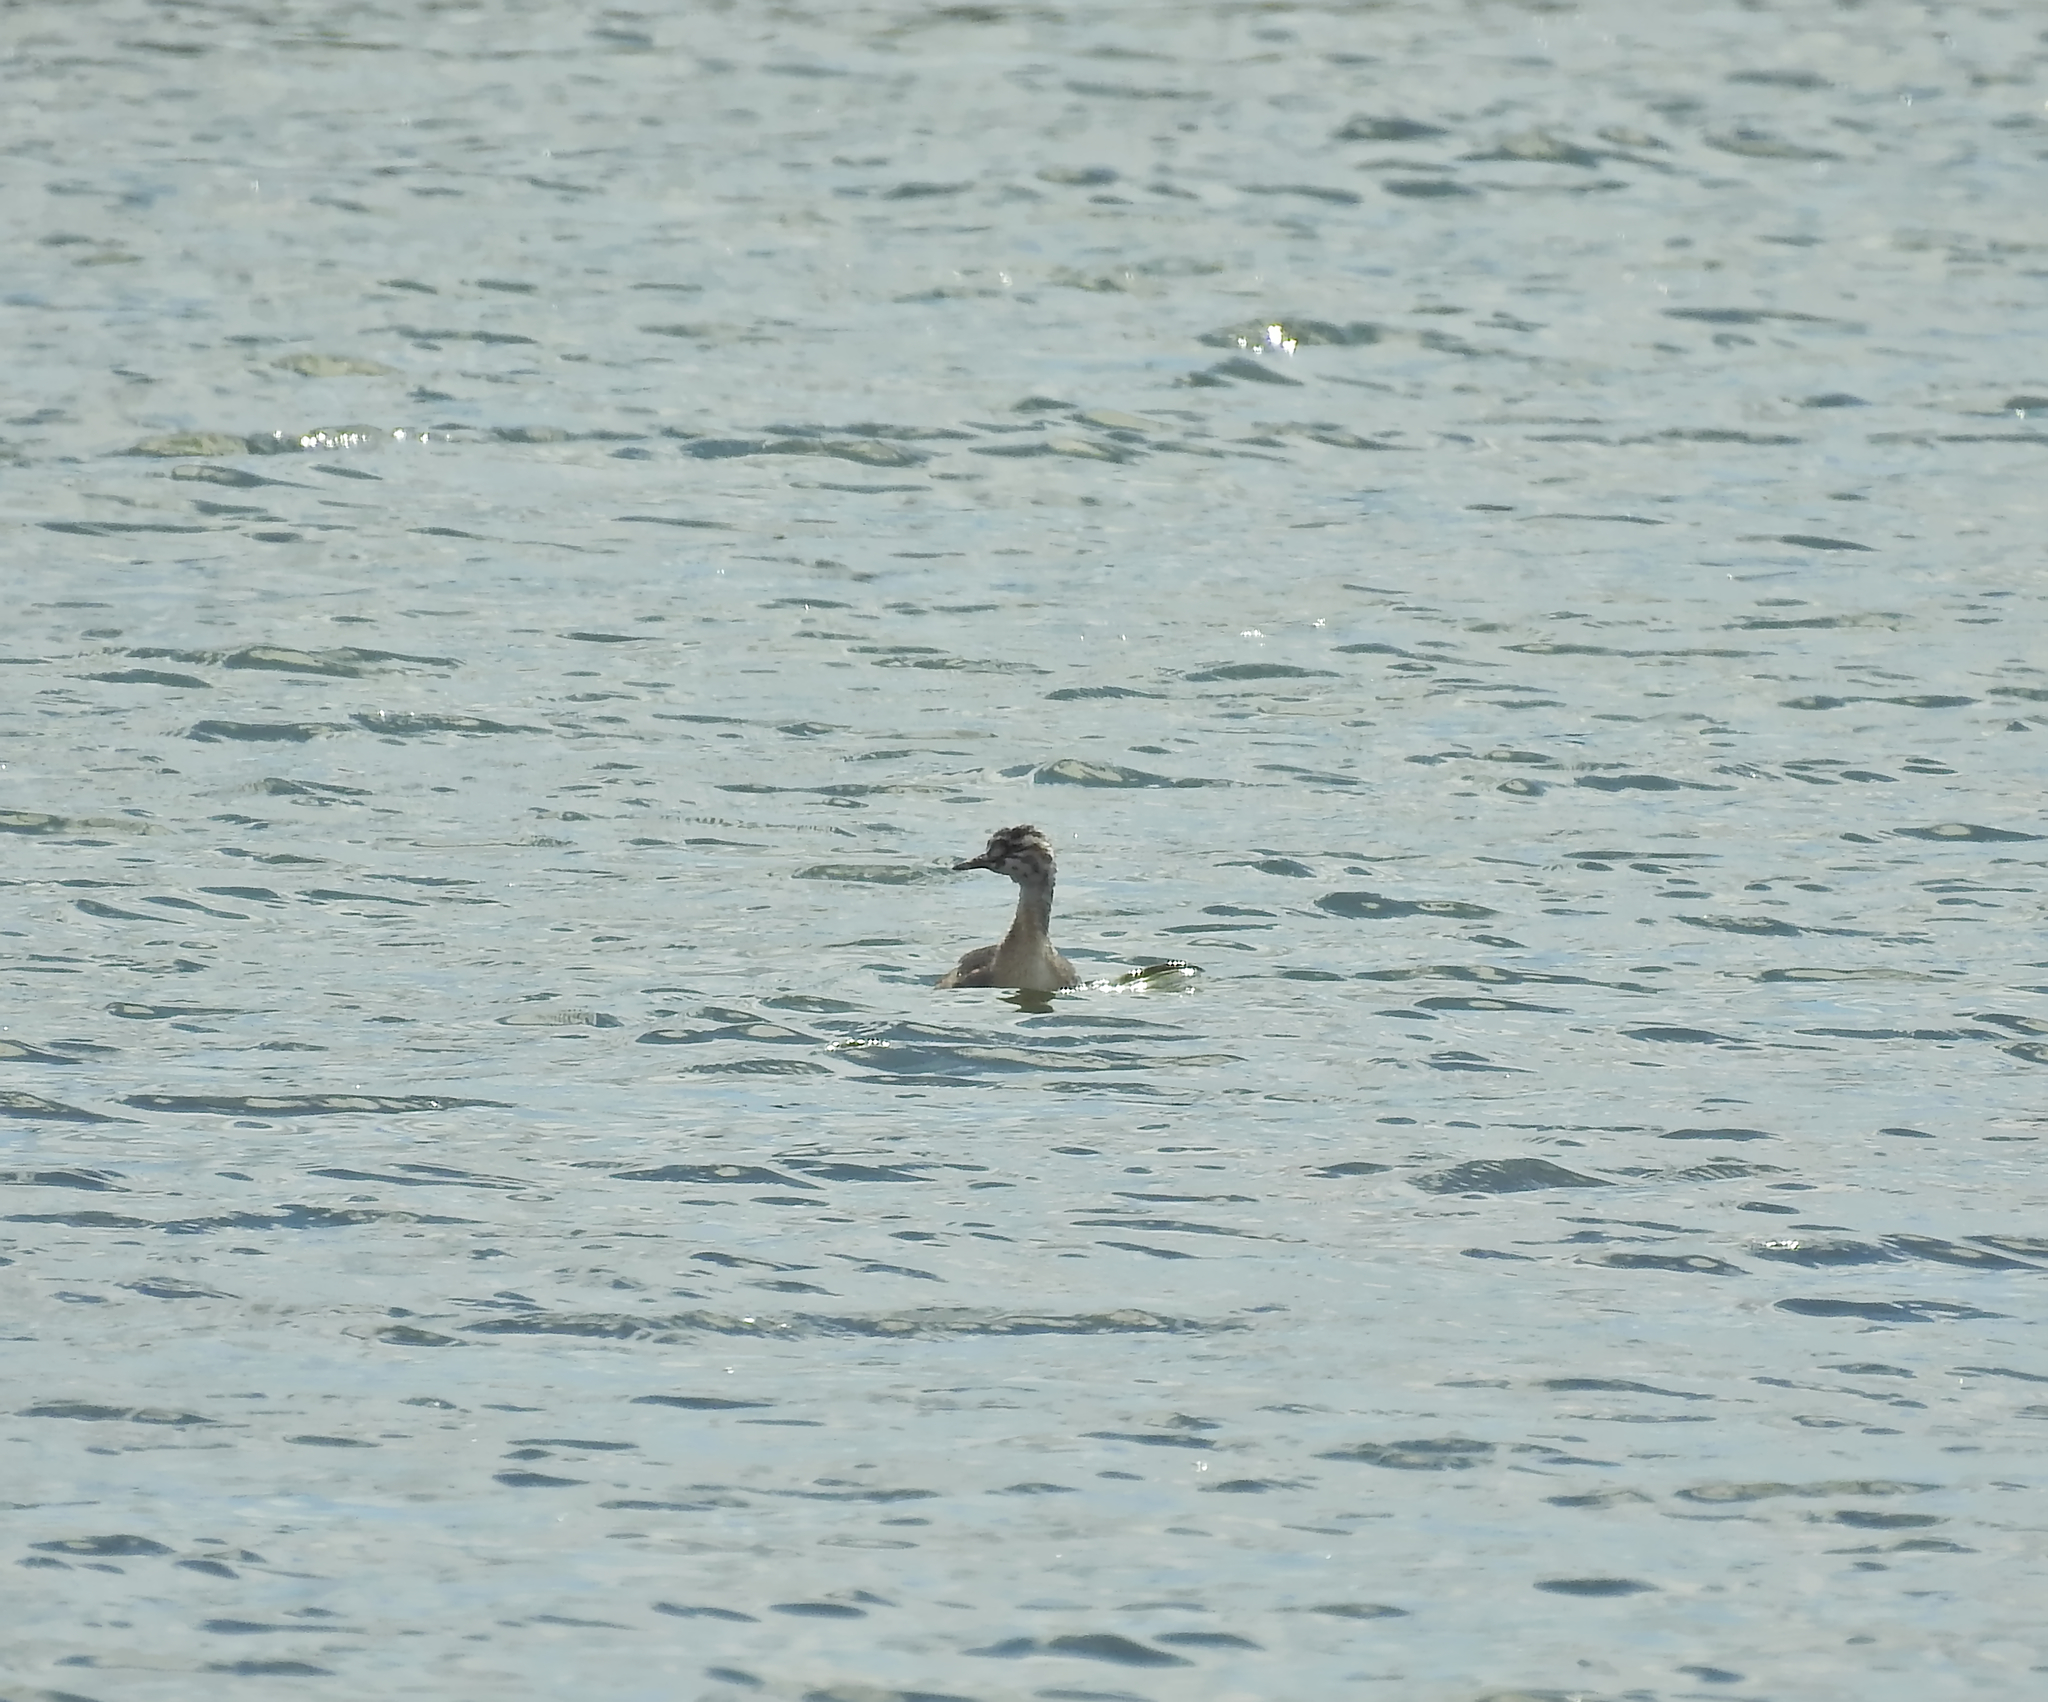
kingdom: Animalia
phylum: Chordata
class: Aves
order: Podicipediformes
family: Podicipedidae
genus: Podiceps
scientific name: Podiceps cristatus
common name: Great crested grebe
